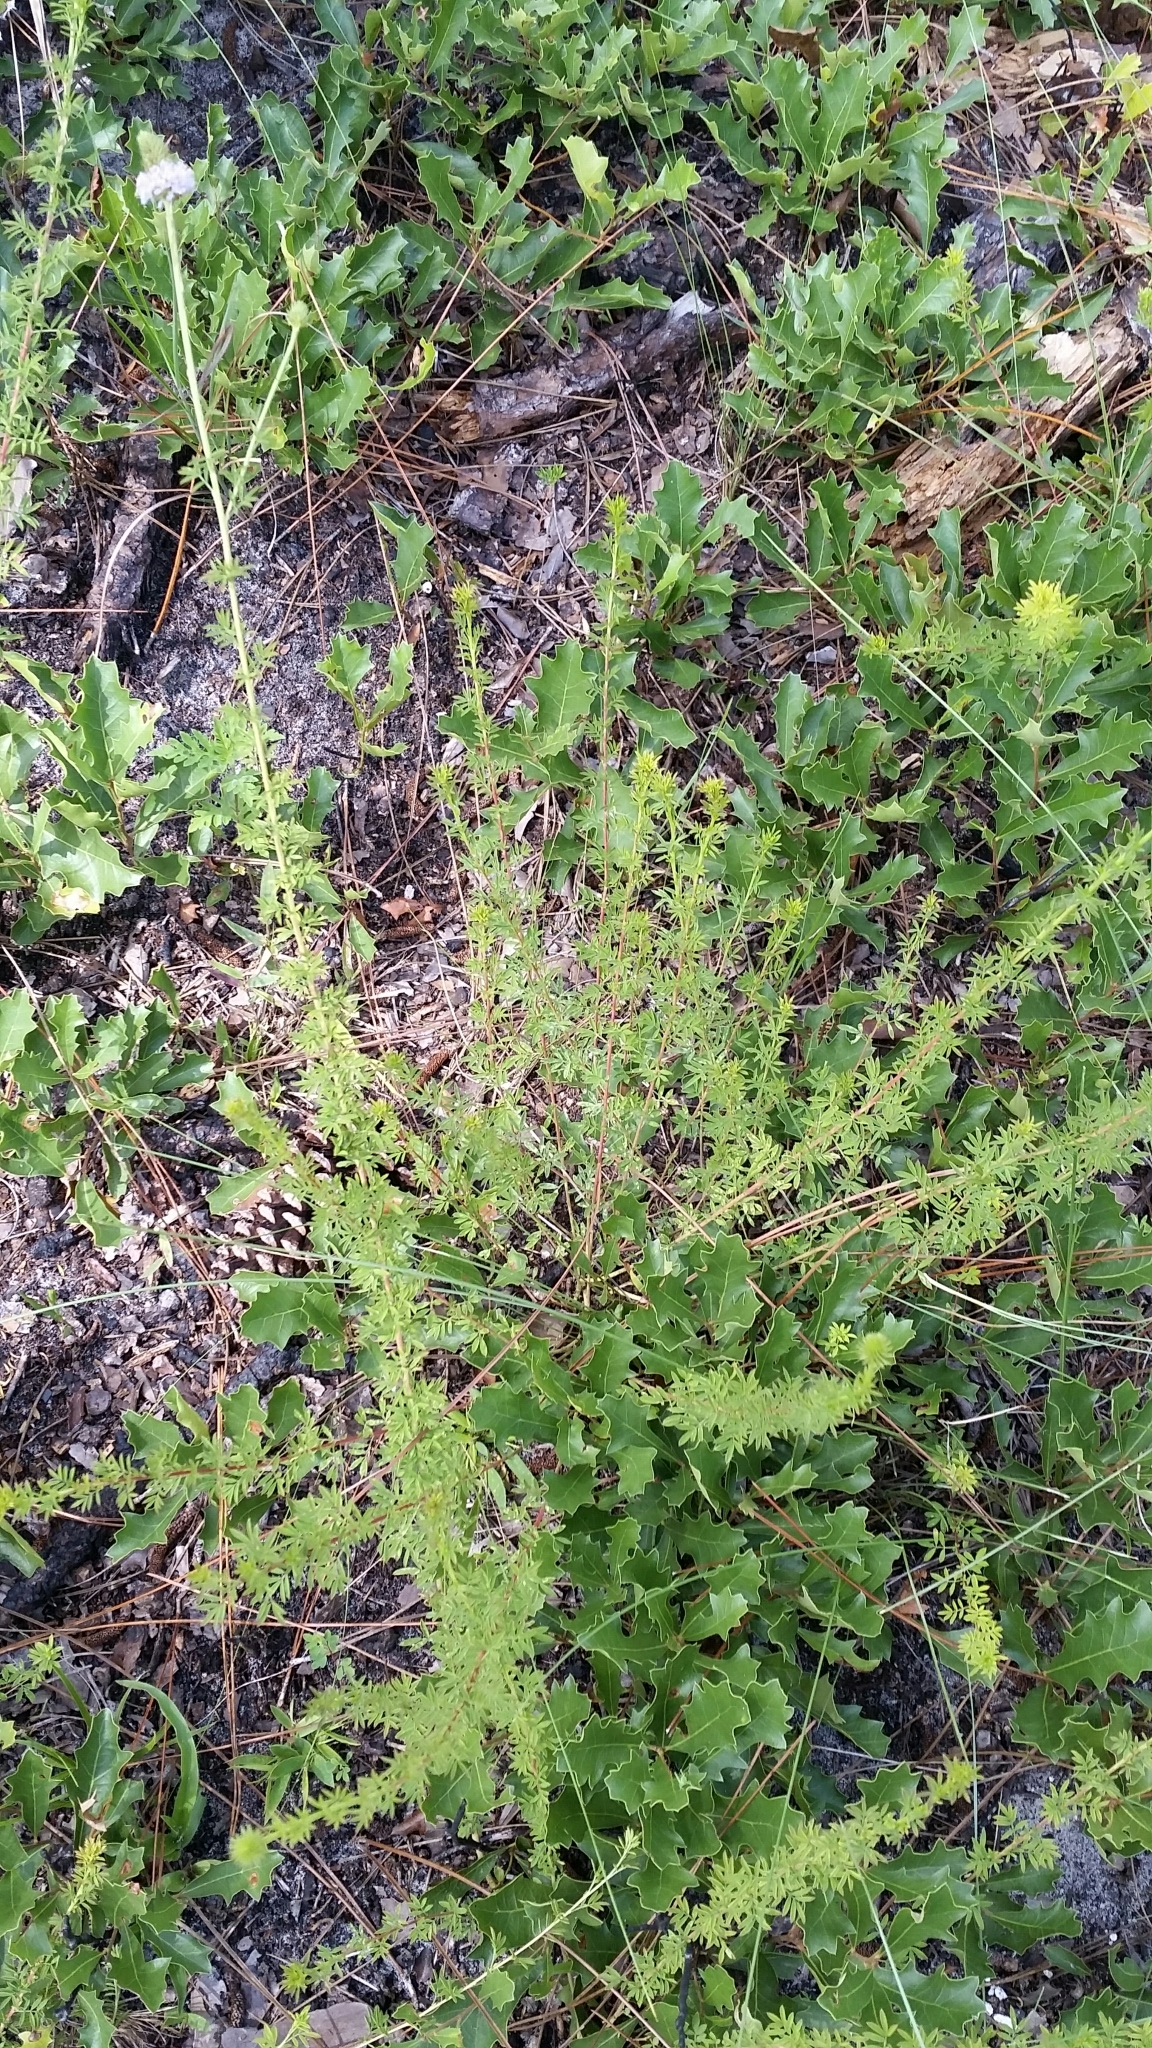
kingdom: Plantae
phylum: Tracheophyta
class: Magnoliopsida
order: Fabales
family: Fabaceae
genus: Dalea
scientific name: Dalea carnea
